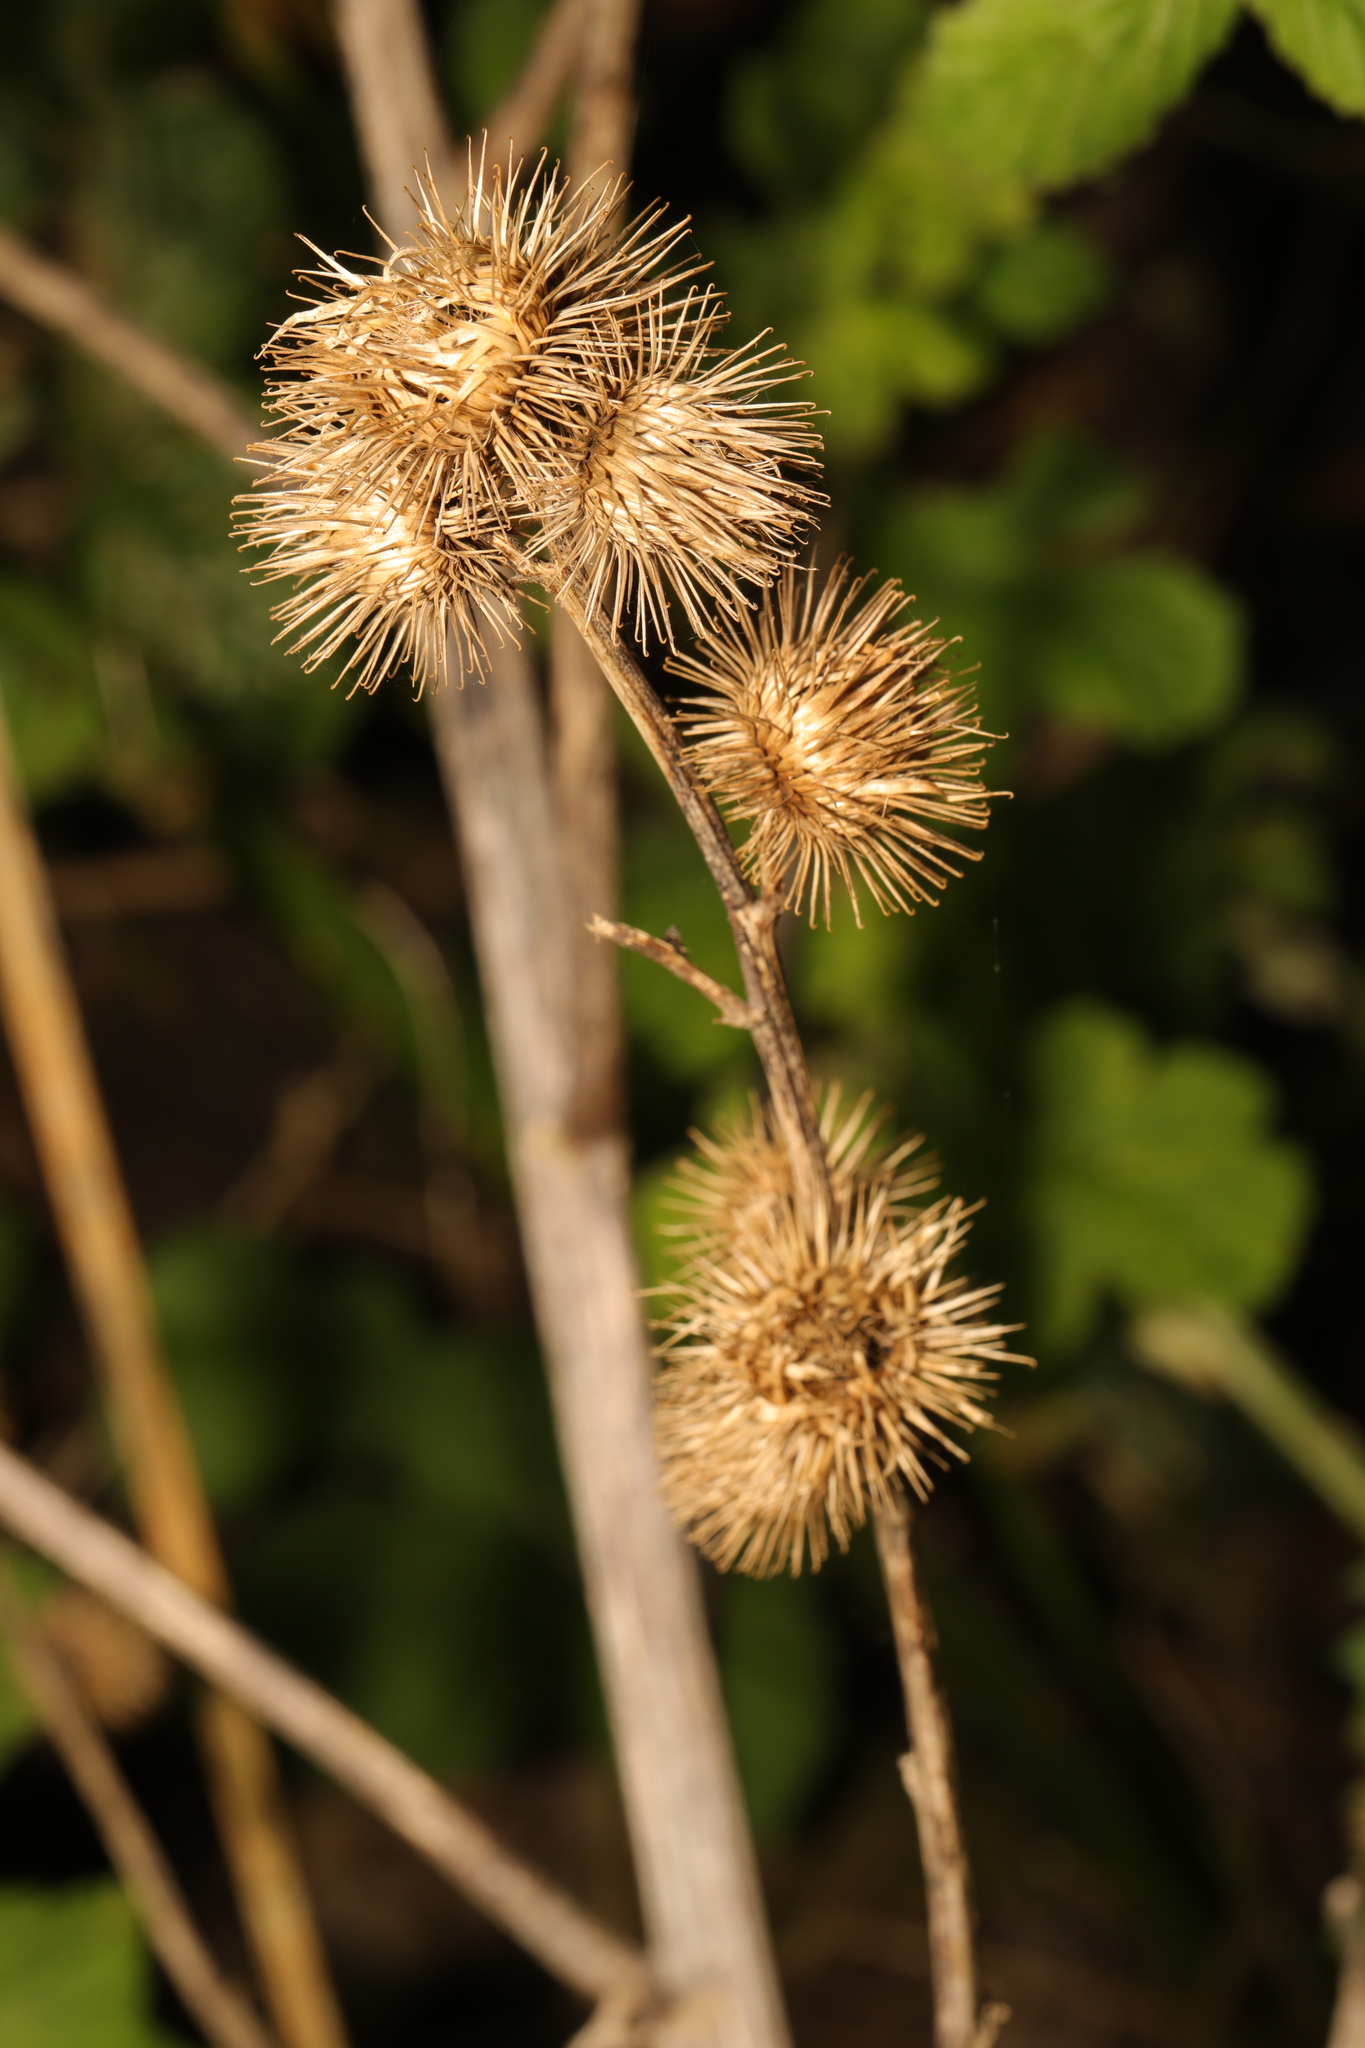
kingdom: Plantae
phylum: Tracheophyta
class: Magnoliopsida
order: Asterales
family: Asteraceae
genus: Arctium
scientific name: Arctium minus
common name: Lesser burdock
